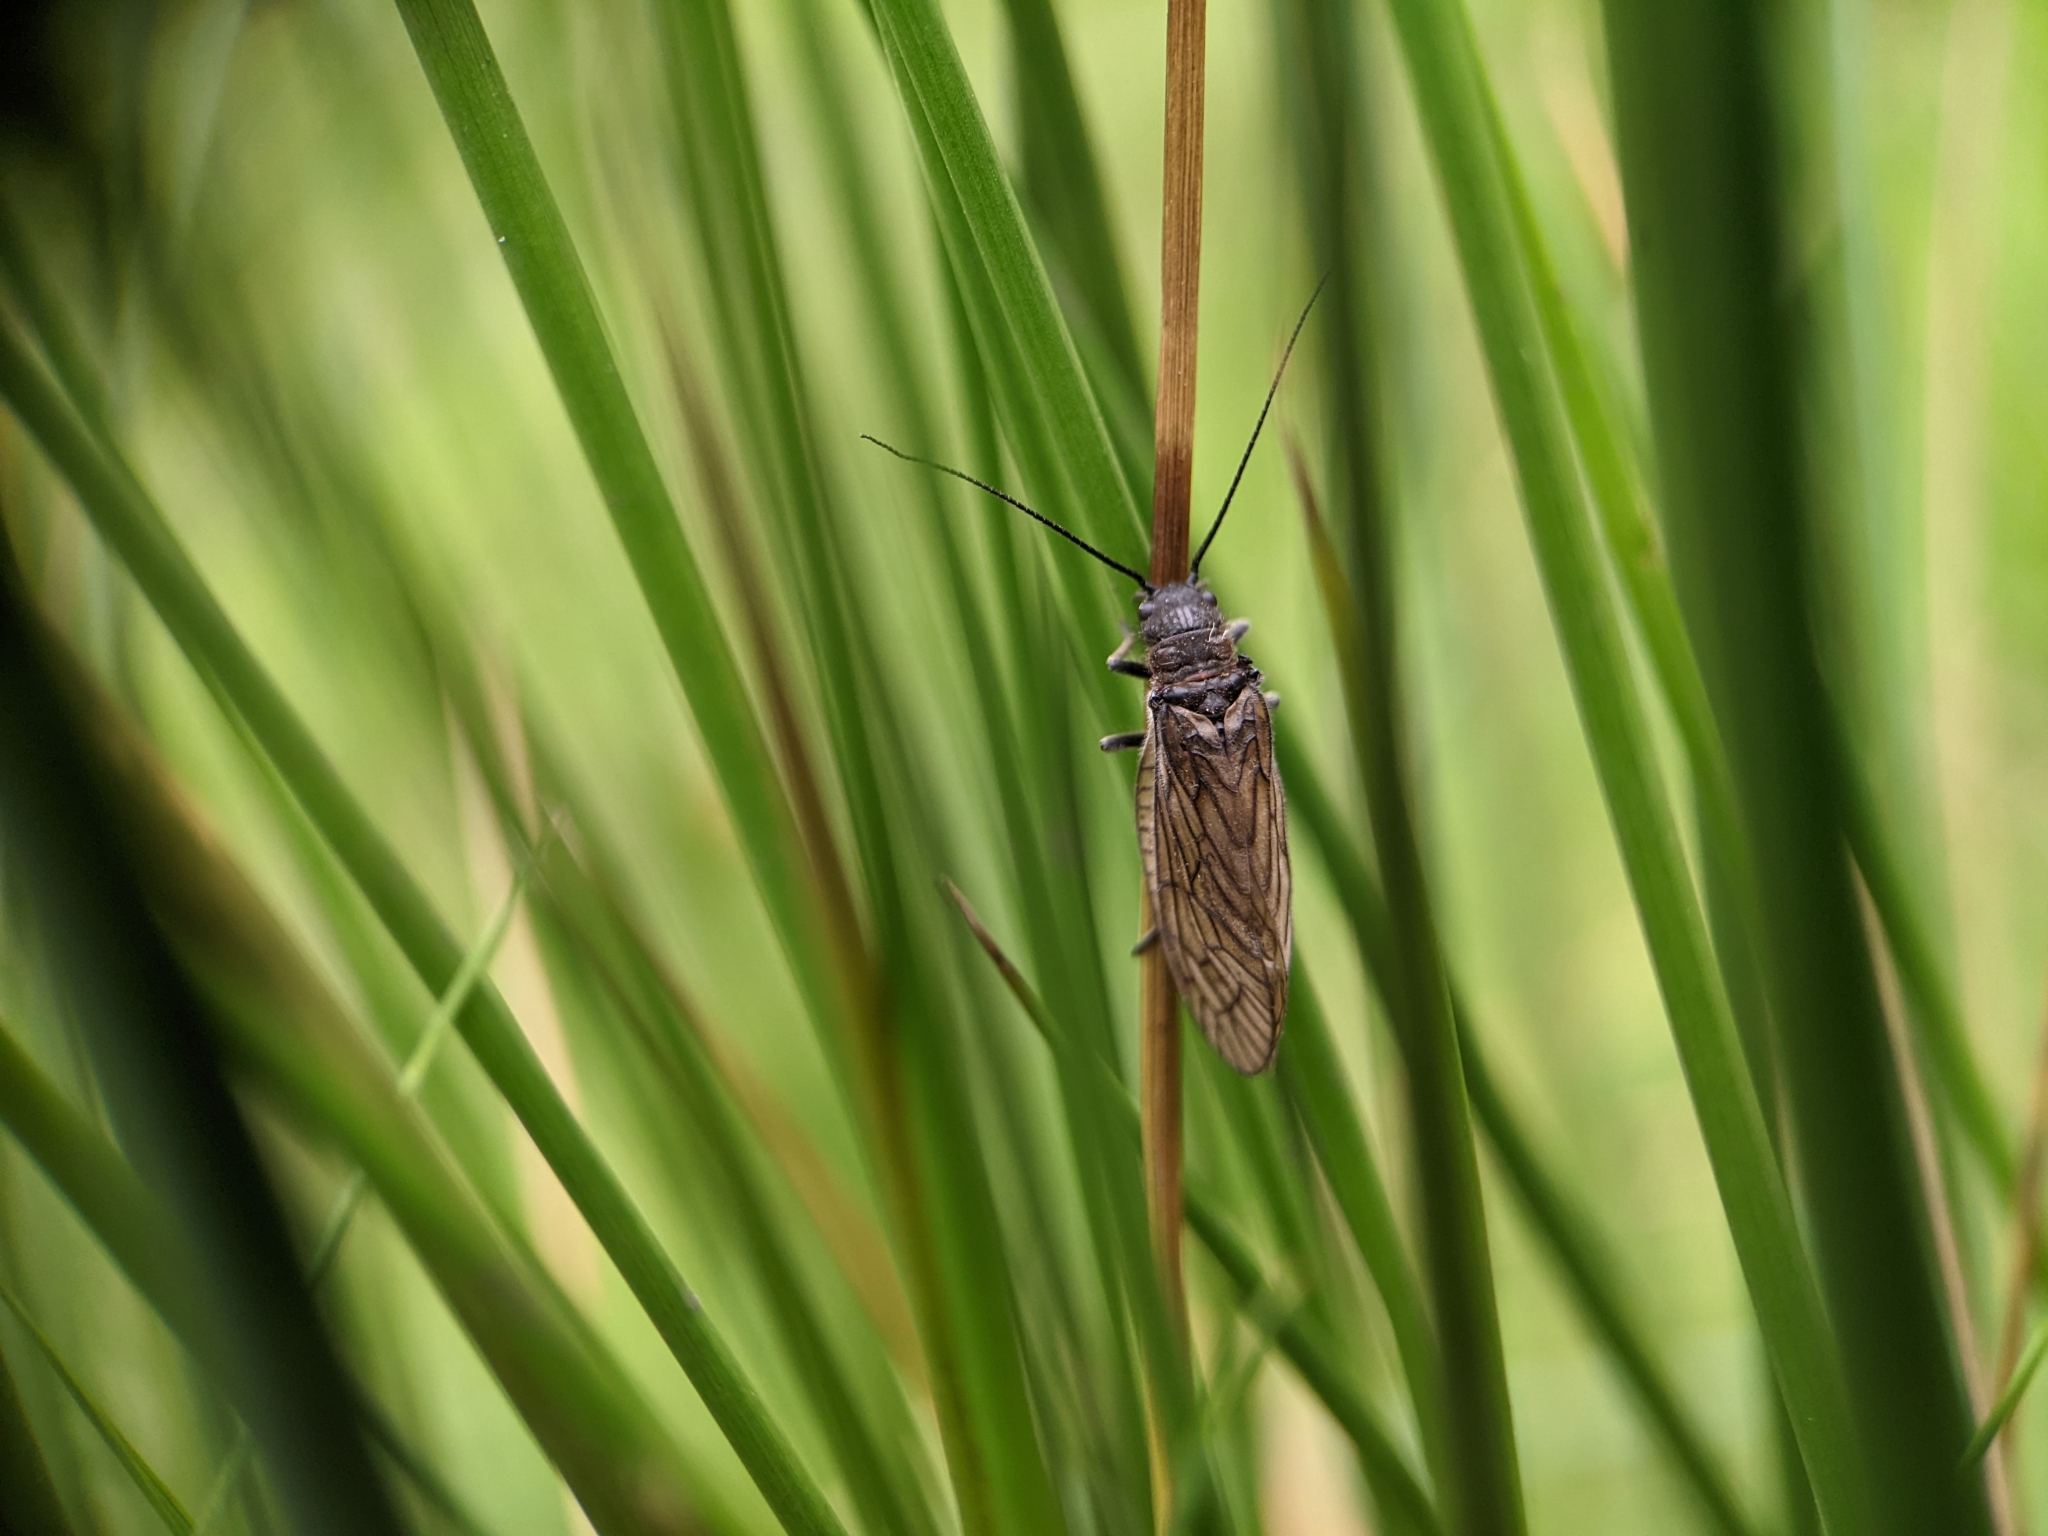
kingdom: Animalia
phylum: Arthropoda
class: Insecta
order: Megaloptera
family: Sialidae
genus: Sialis
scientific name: Sialis
